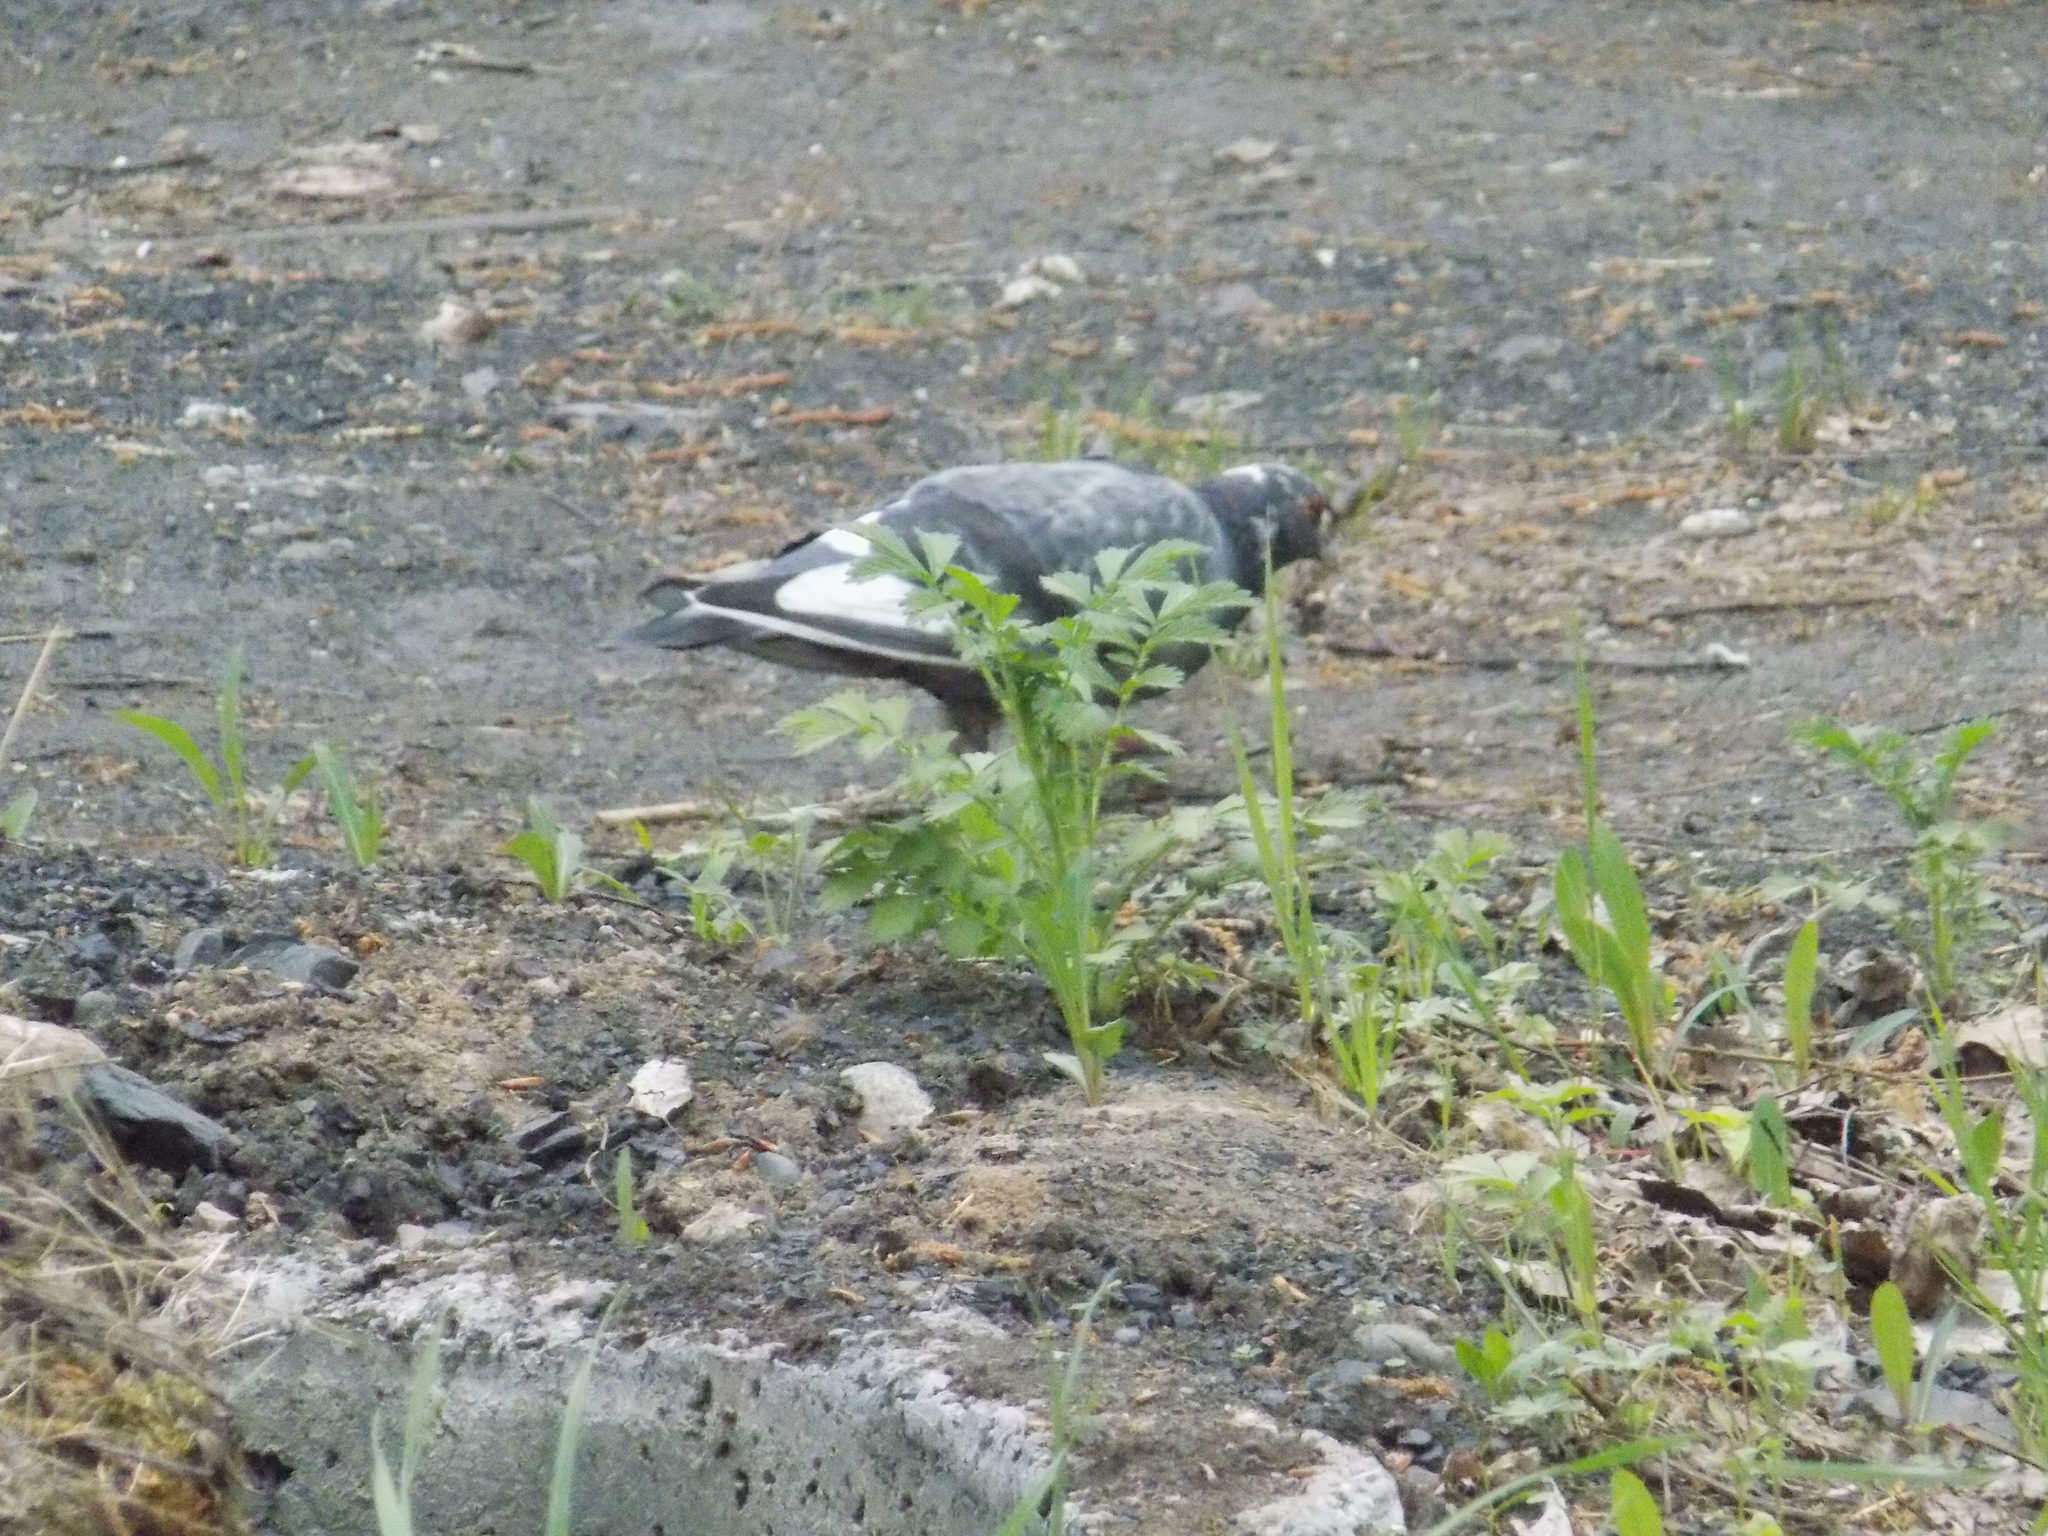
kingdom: Animalia
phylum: Chordata
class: Aves
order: Columbiformes
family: Columbidae
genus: Columba
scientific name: Columba livia
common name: Rock pigeon
